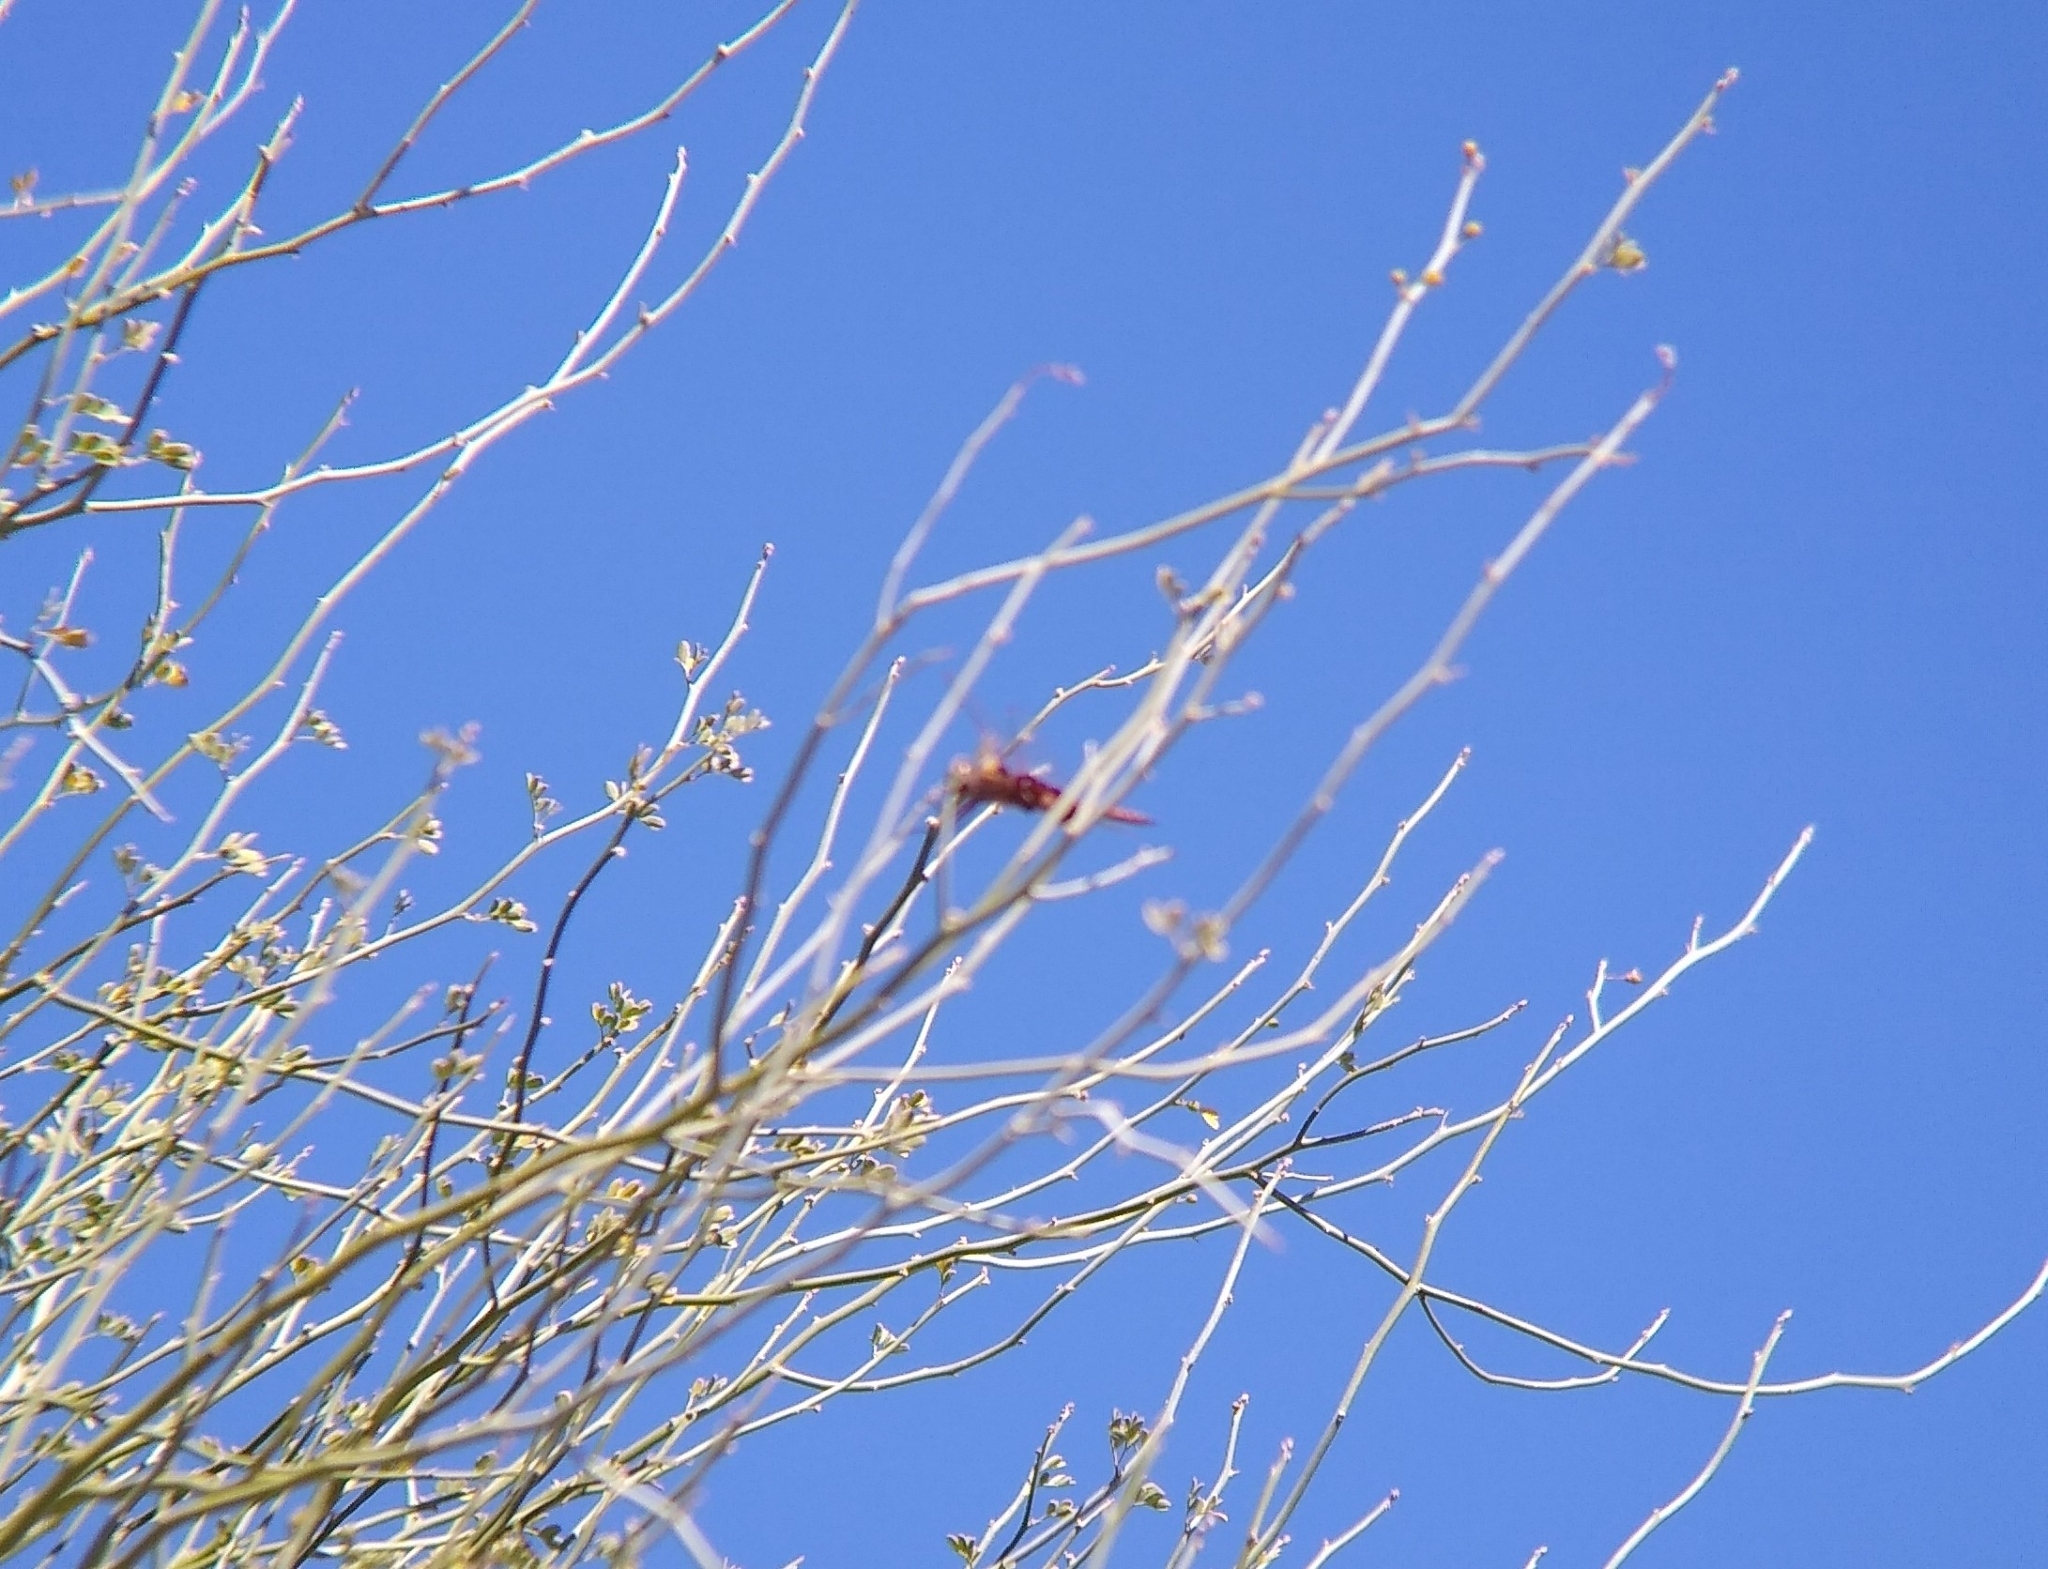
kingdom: Animalia
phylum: Arthropoda
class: Insecta
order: Odonata
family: Libellulidae
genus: Tramea
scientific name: Tramea onusta
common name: Red saddlebags
